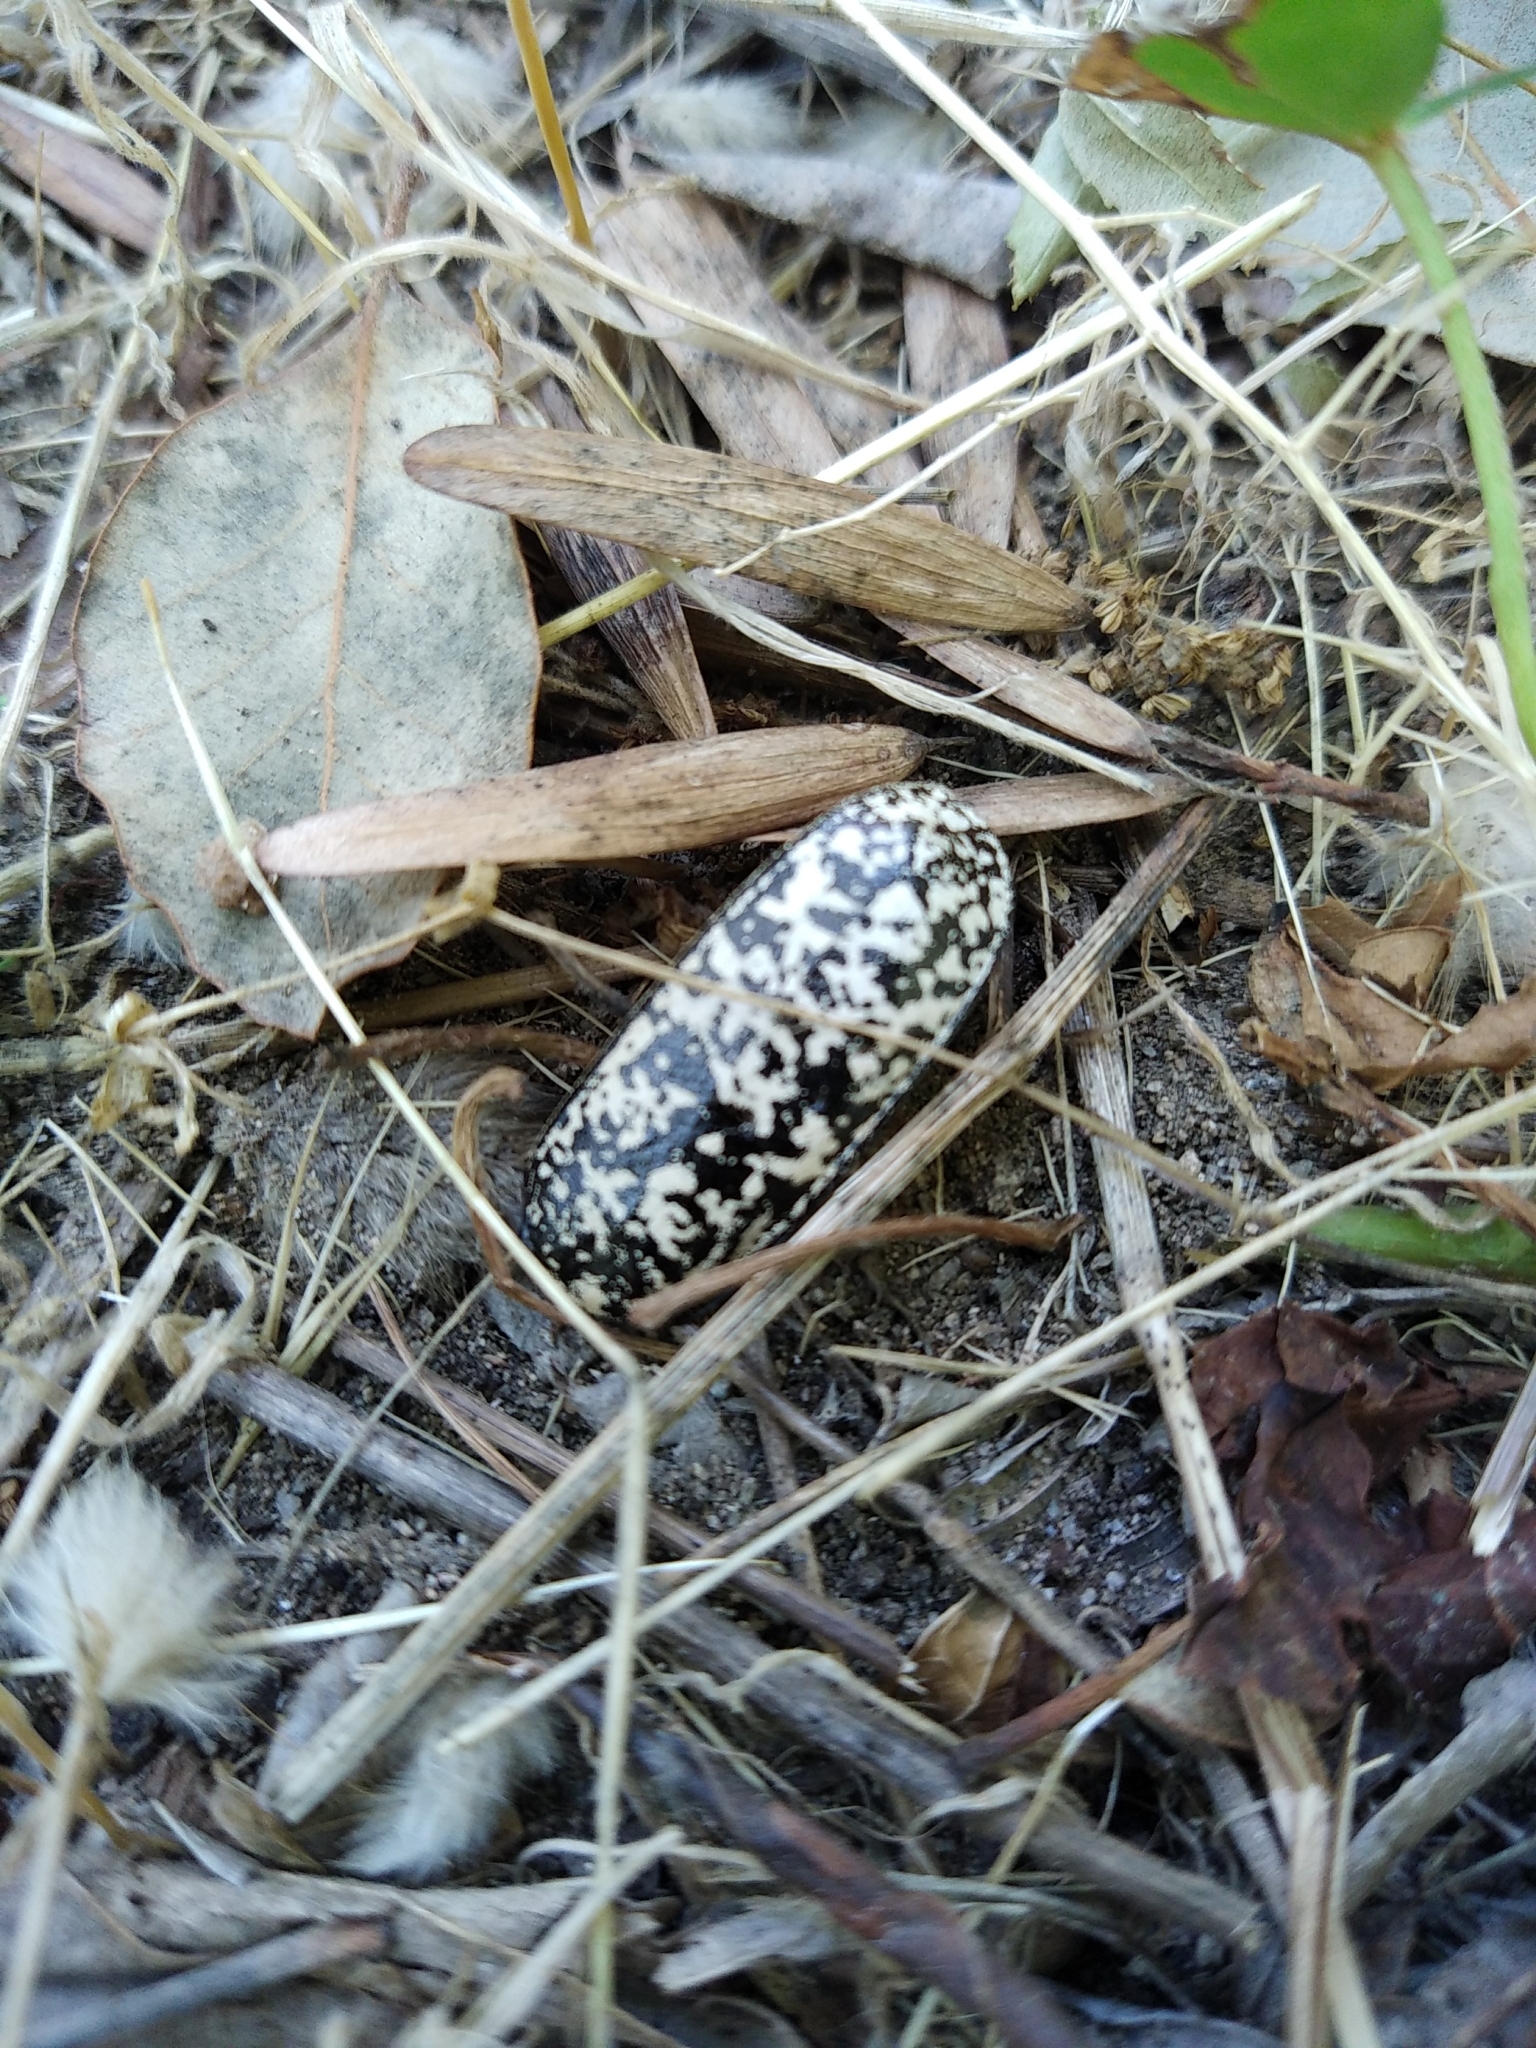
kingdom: Animalia
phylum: Arthropoda
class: Insecta
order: Coleoptera
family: Scarabaeidae
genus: Polyphylla
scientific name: Polyphylla fullo
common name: Pine chafer
